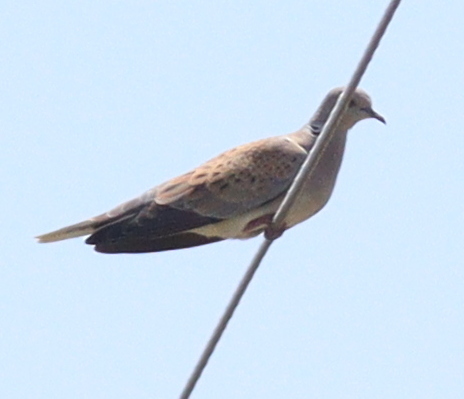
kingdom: Animalia
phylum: Chordata
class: Aves
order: Columbiformes
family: Columbidae
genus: Streptopelia
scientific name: Streptopelia turtur
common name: European turtle dove
